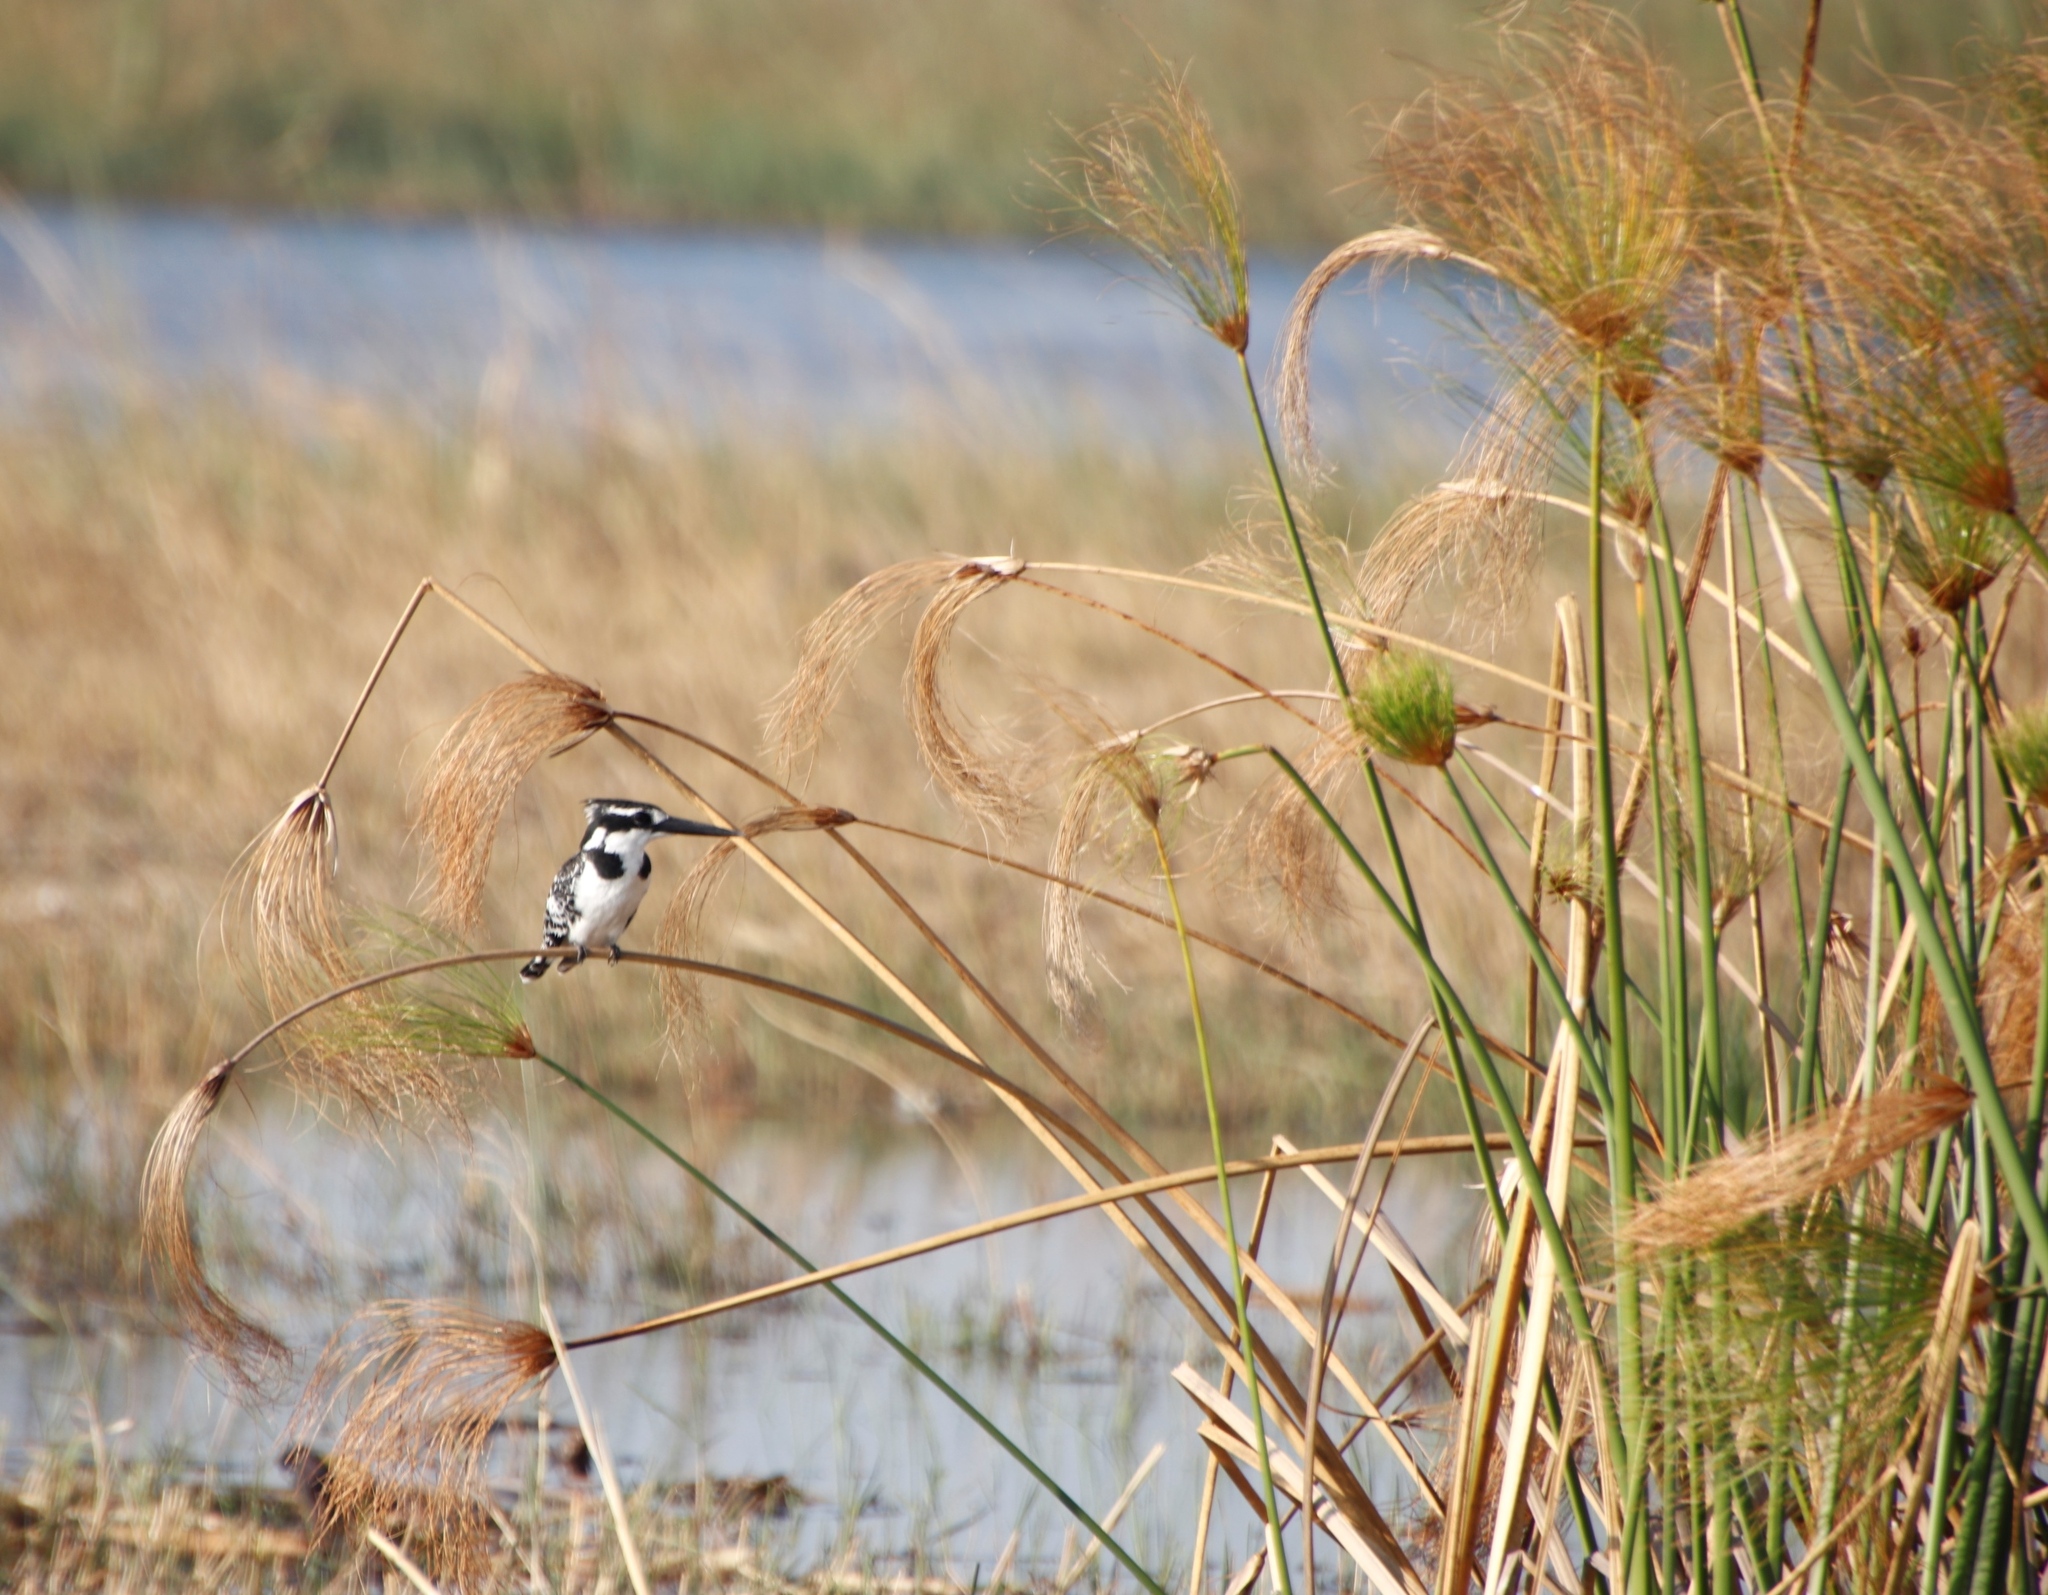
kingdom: Animalia
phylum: Chordata
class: Aves
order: Coraciiformes
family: Alcedinidae
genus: Ceryle
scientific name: Ceryle rudis
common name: Pied kingfisher
